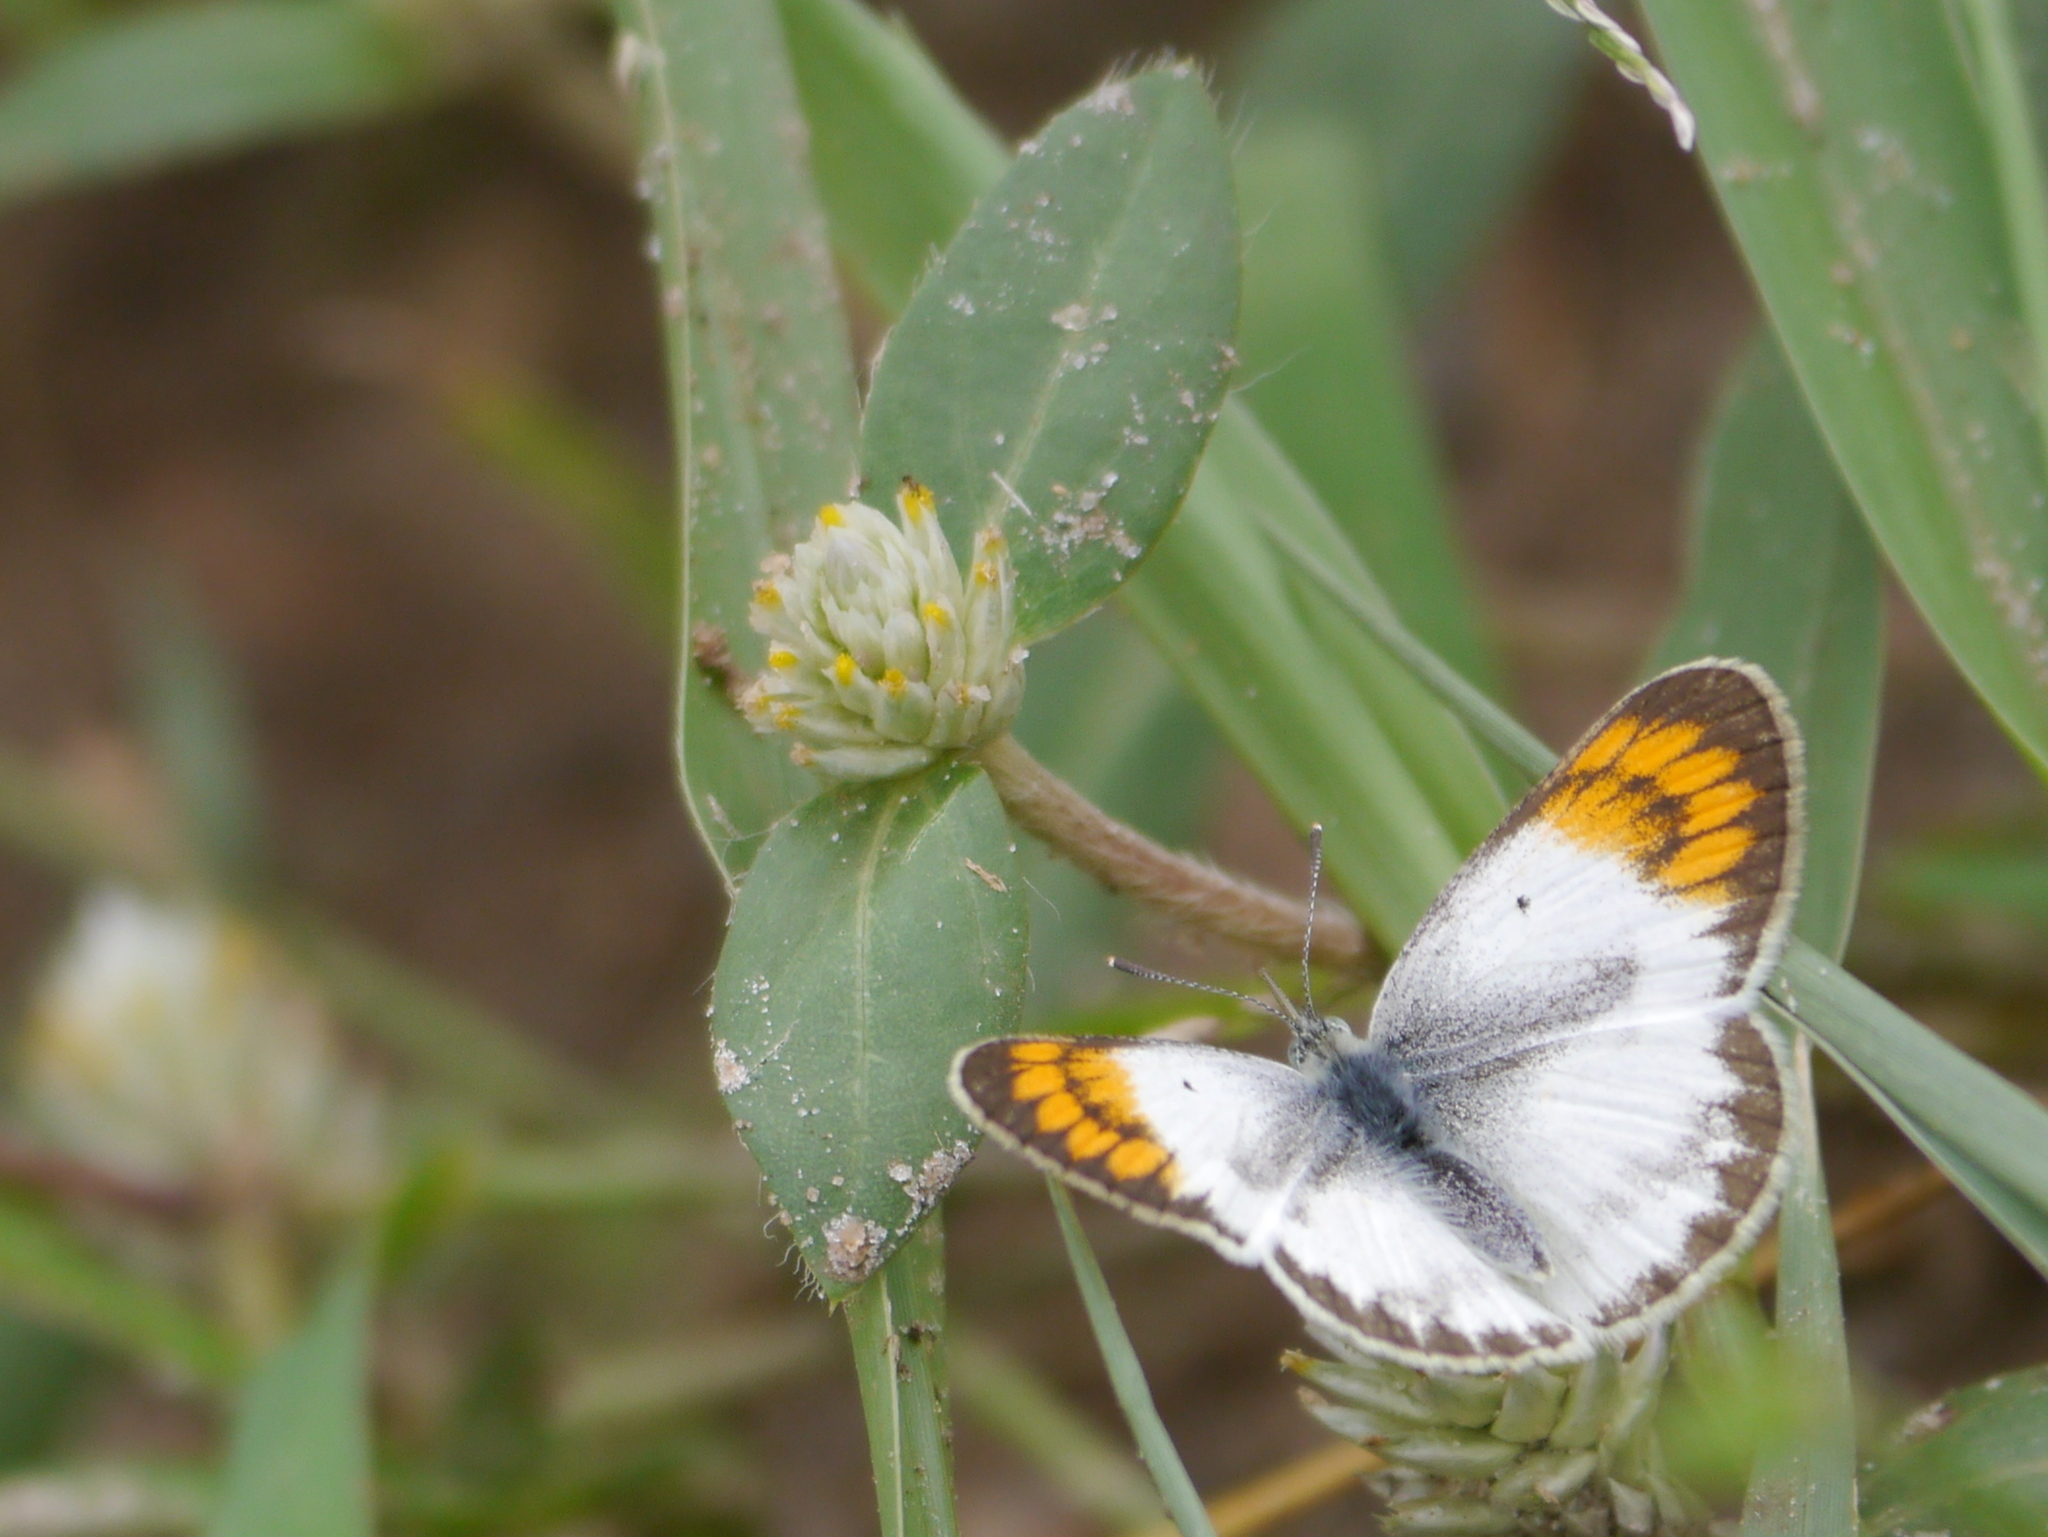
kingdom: Animalia
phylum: Arthropoda
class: Insecta
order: Lepidoptera
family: Pieridae
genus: Colotis
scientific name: Colotis evagore
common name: Desert orange-tip
